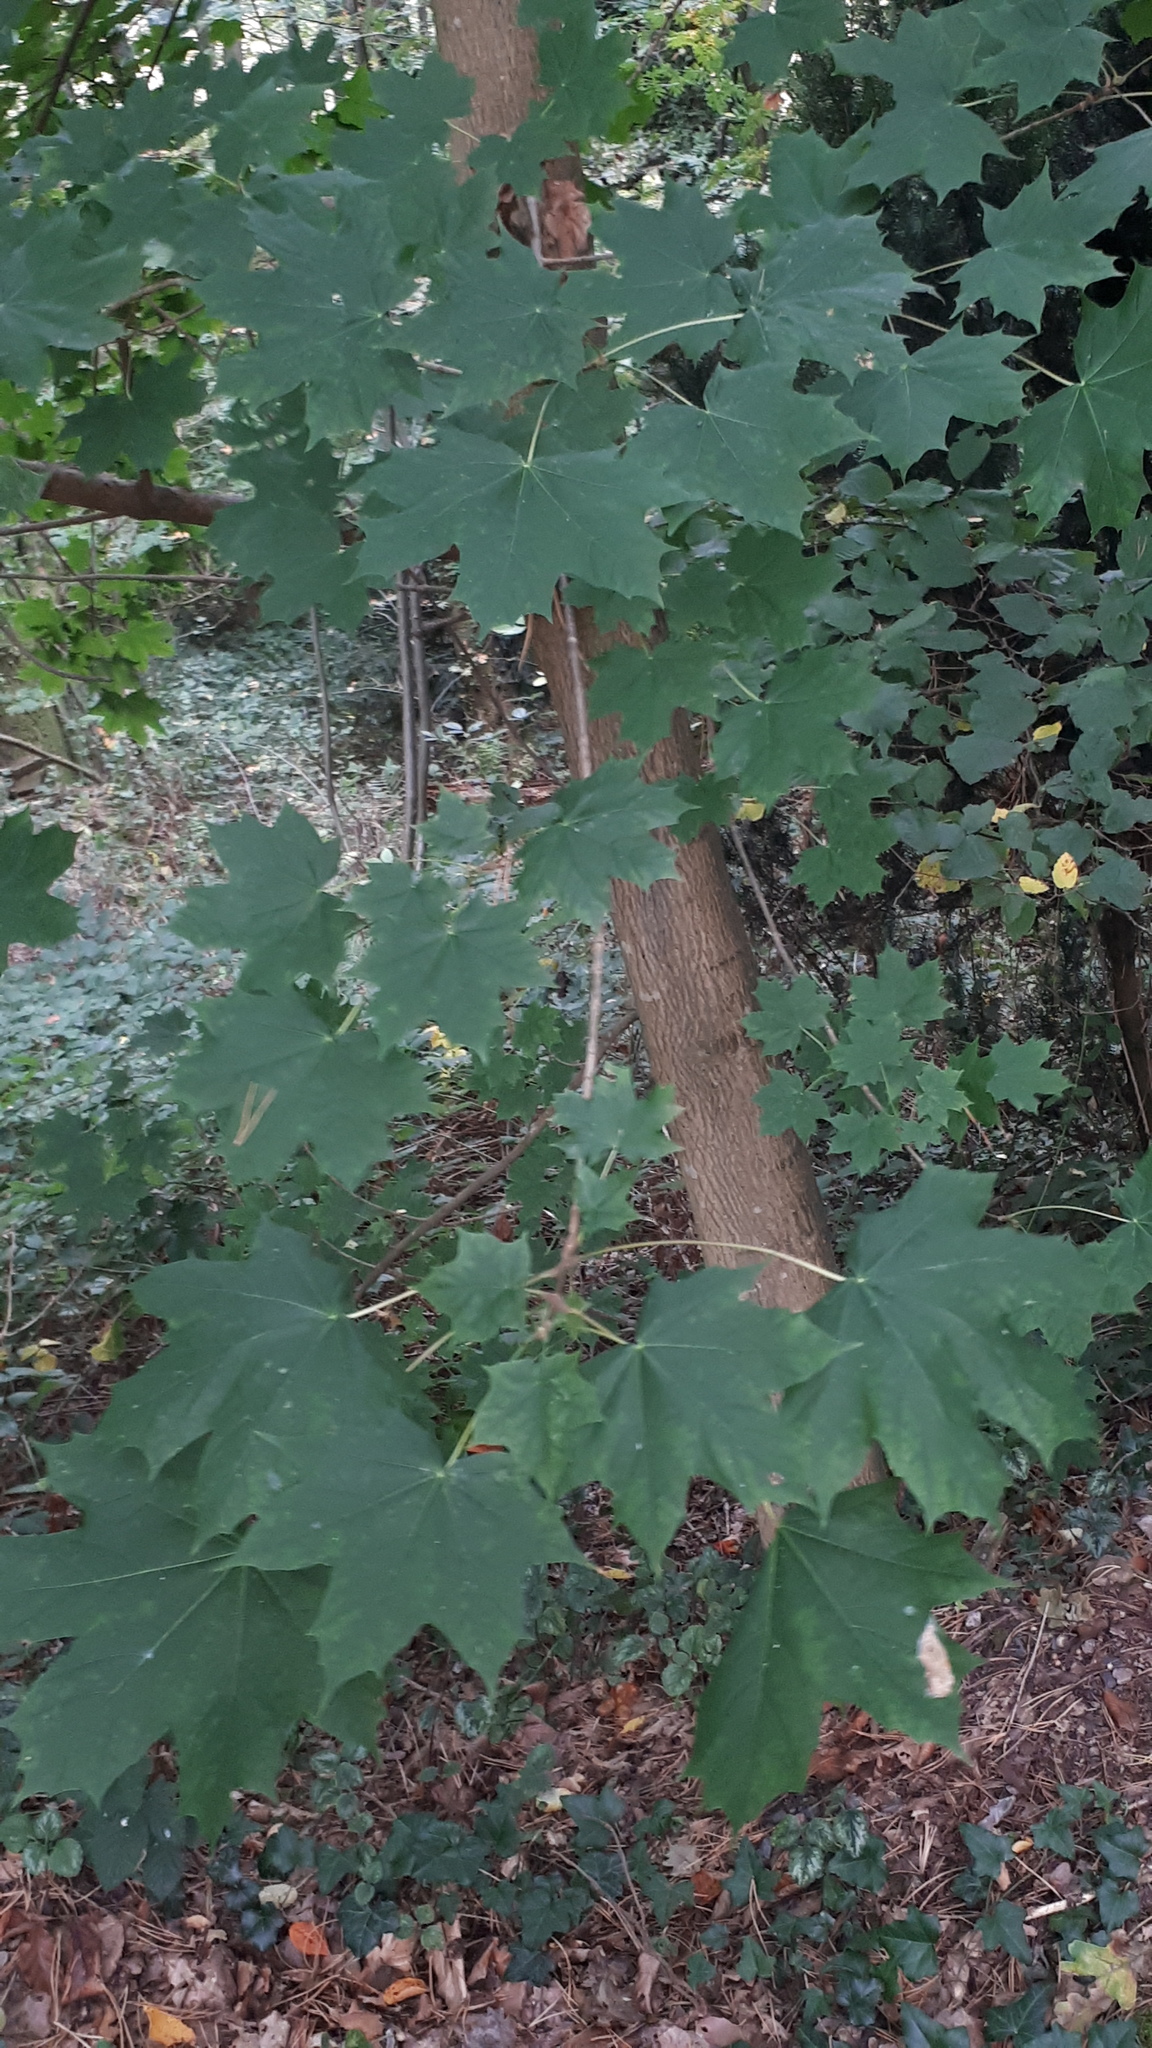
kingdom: Plantae
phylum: Tracheophyta
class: Magnoliopsida
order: Sapindales
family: Sapindaceae
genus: Acer
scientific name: Acer platanoides
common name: Norway maple
